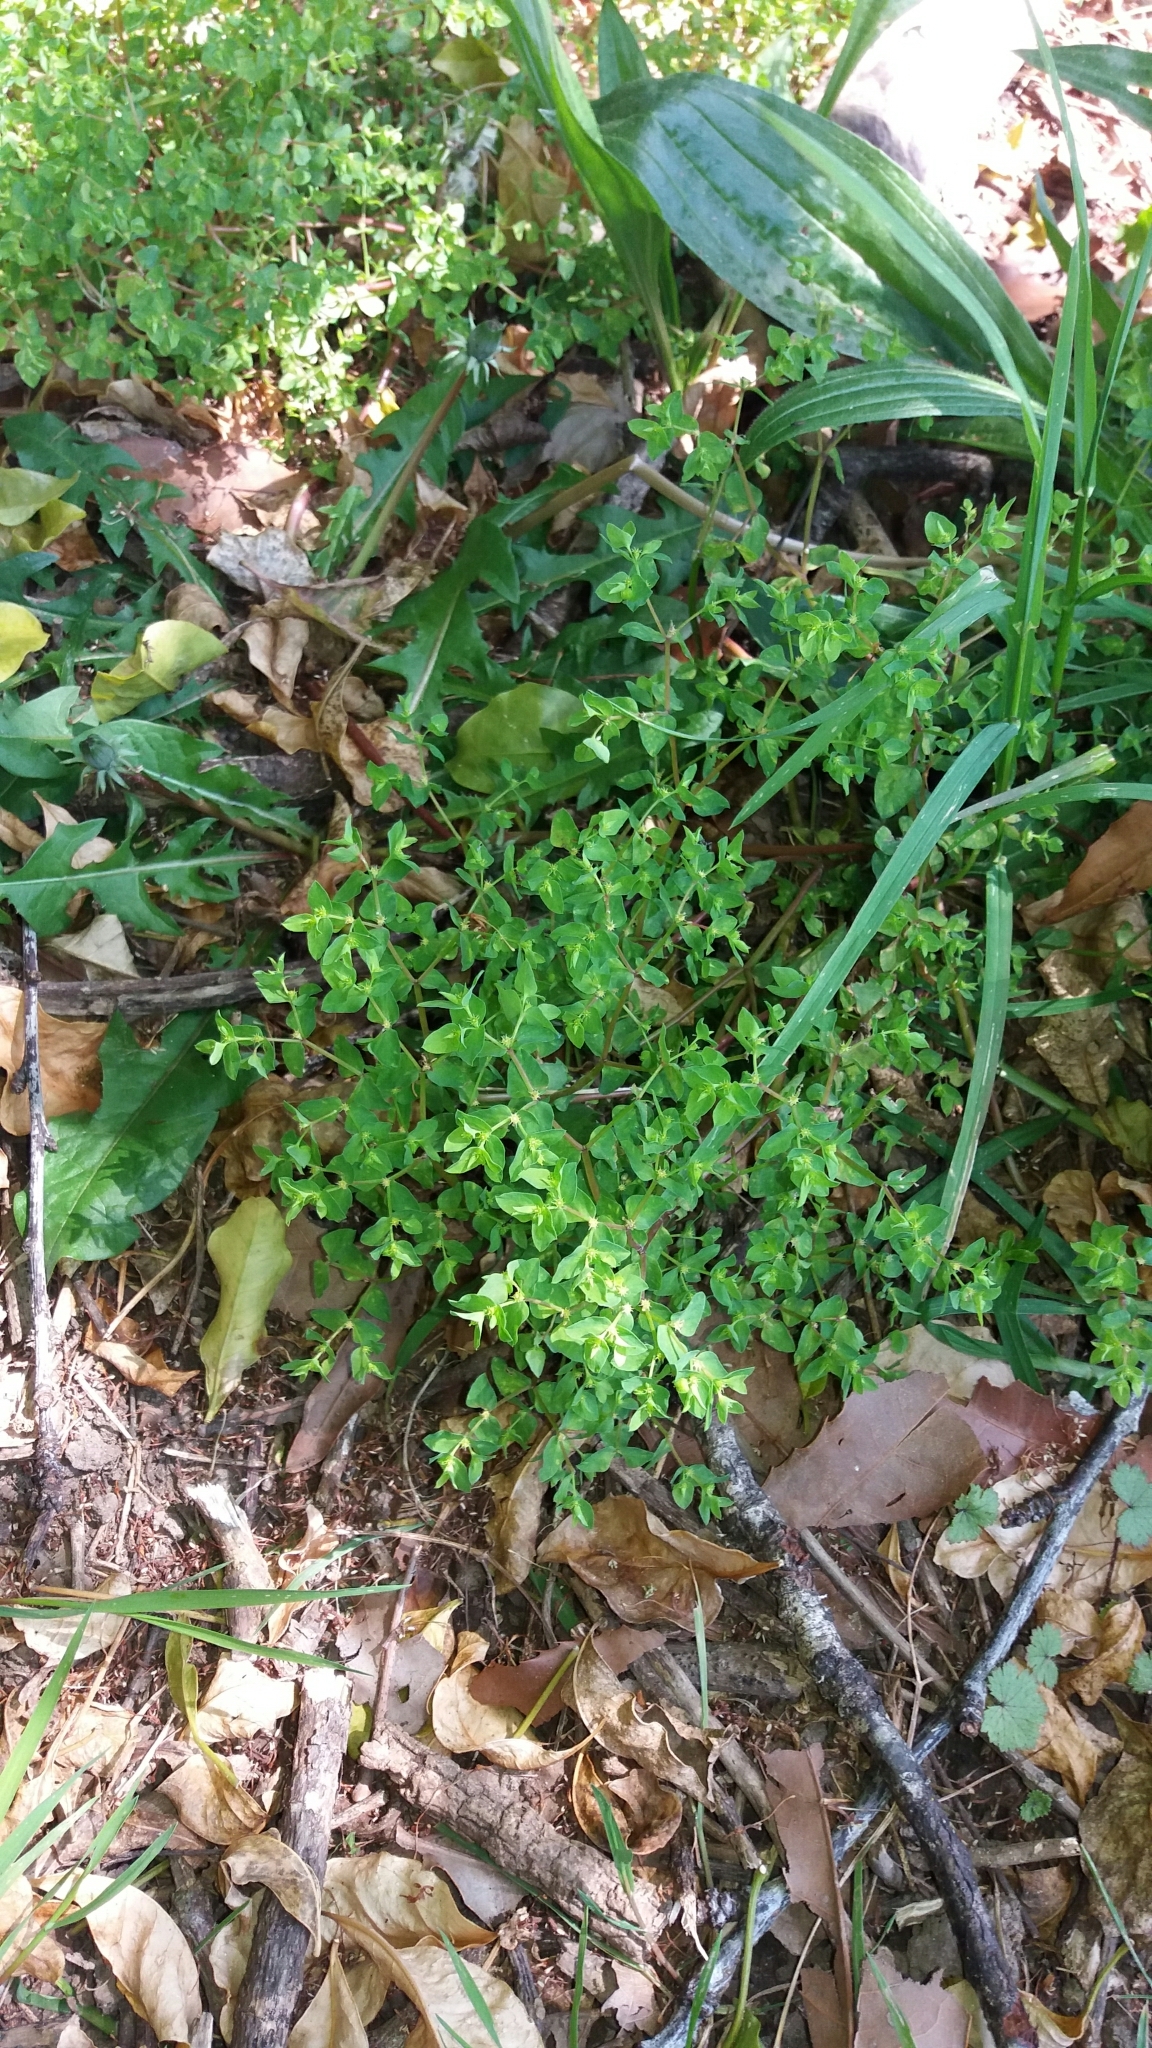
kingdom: Plantae
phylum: Tracheophyta
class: Magnoliopsida
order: Malpighiales
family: Euphorbiaceae
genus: Euphorbia
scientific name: Euphorbia peplus
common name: Petty spurge
